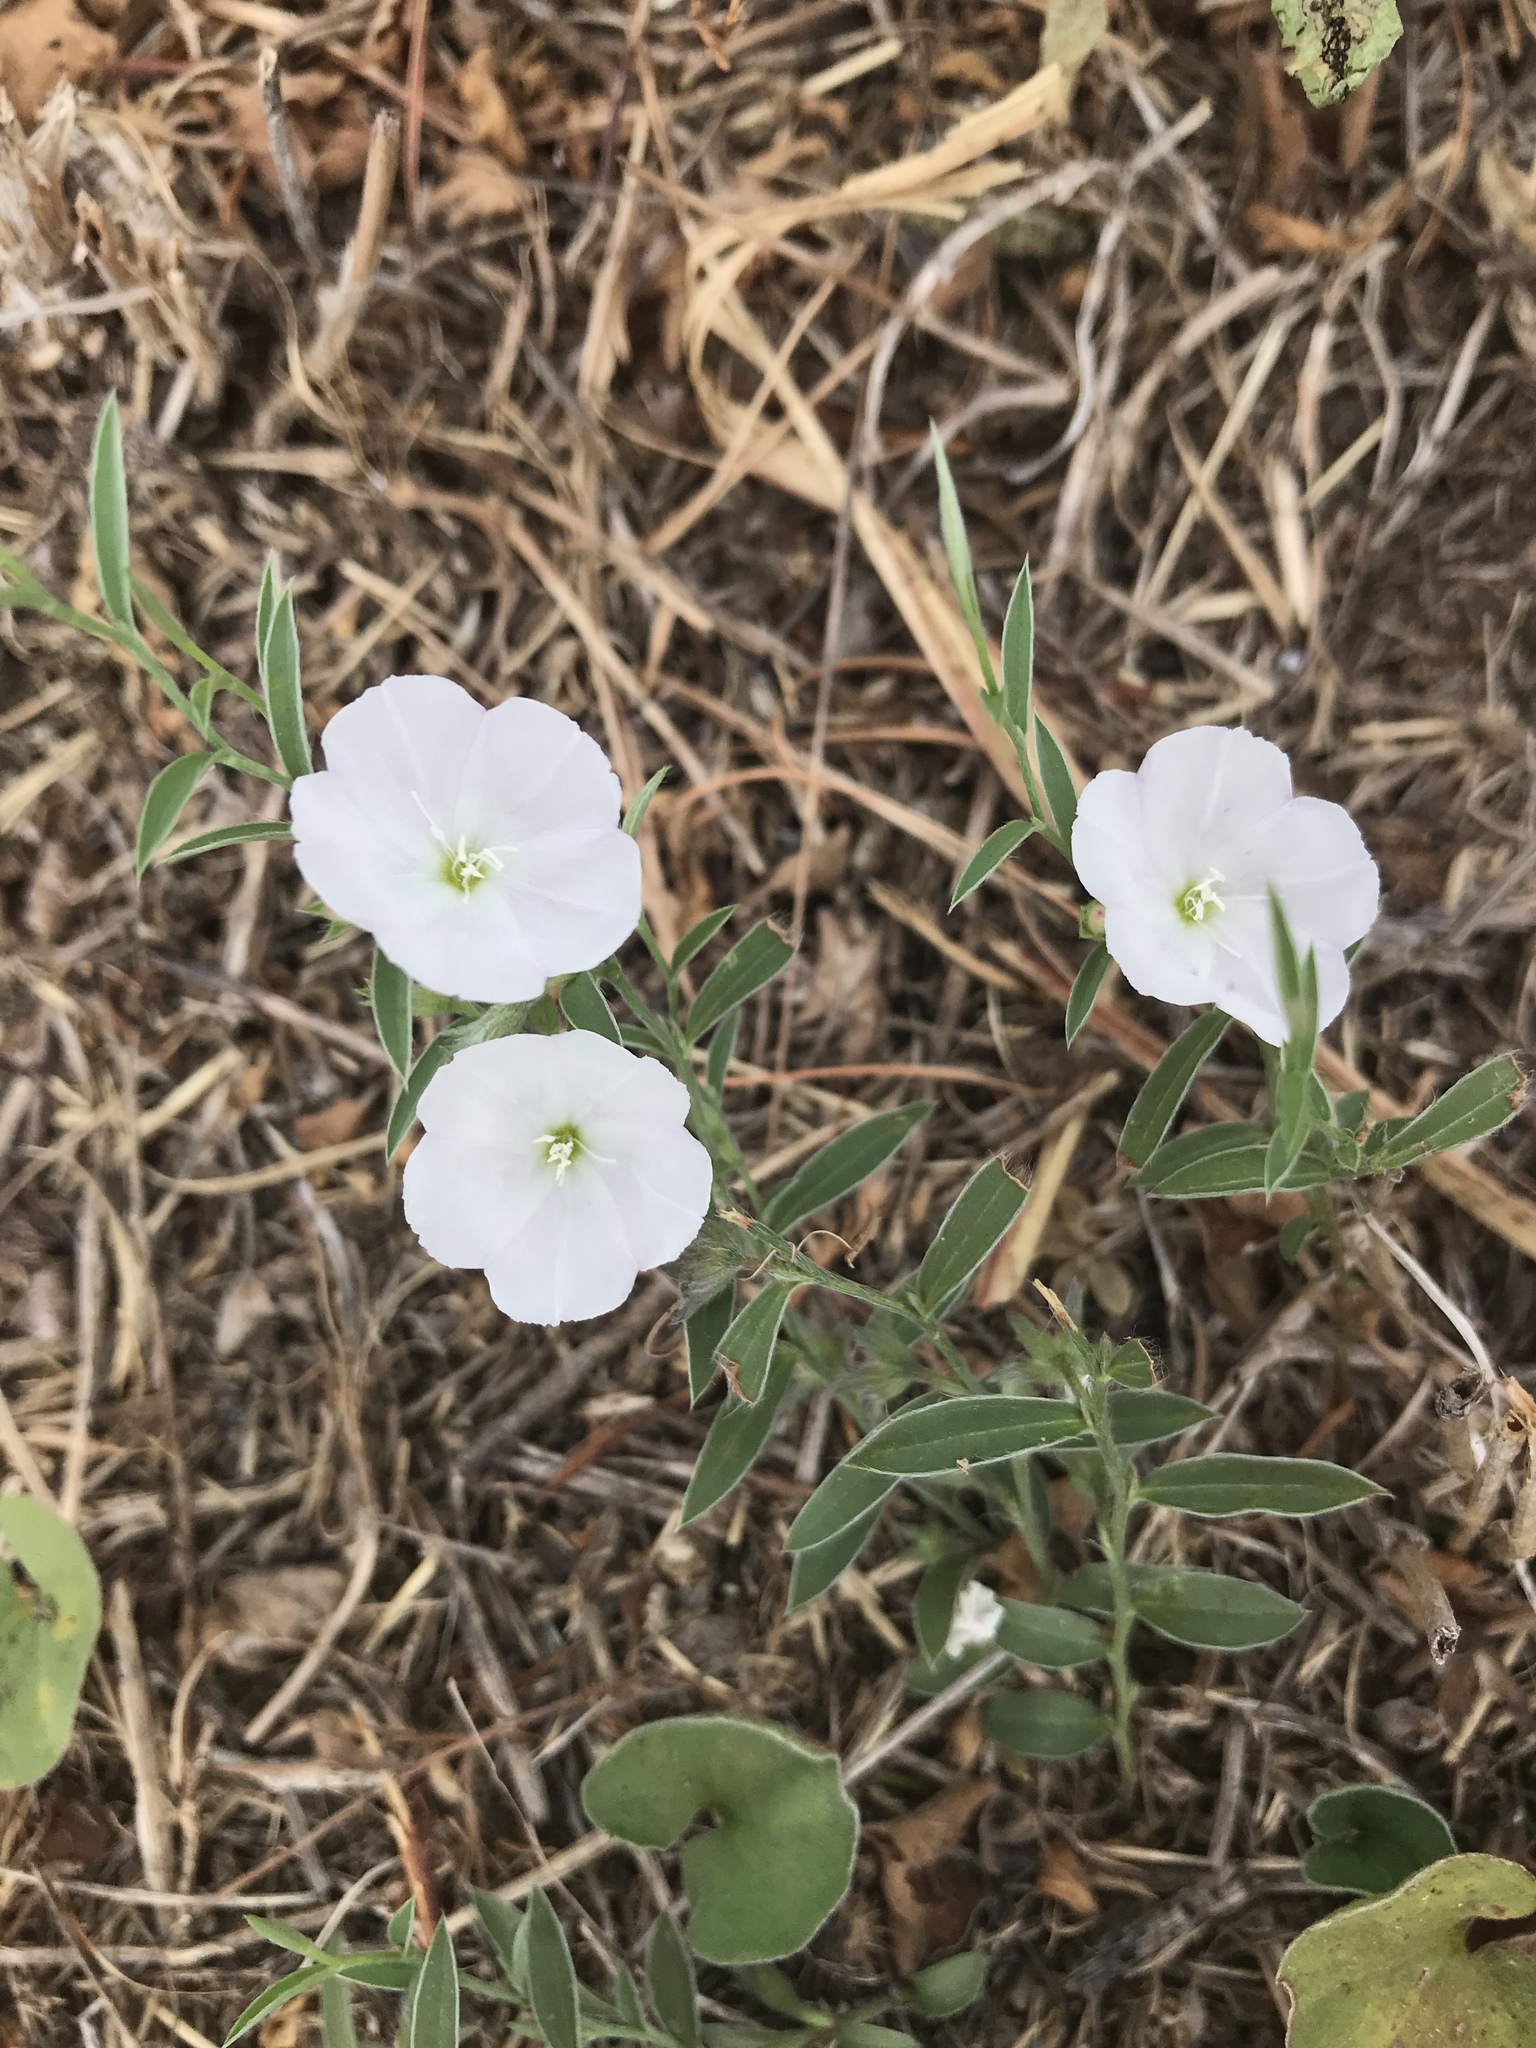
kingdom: Plantae
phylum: Tracheophyta
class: Magnoliopsida
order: Solanales
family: Convolvulaceae
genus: Evolvulus
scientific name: Evolvulus sericeus
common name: Blue dots
